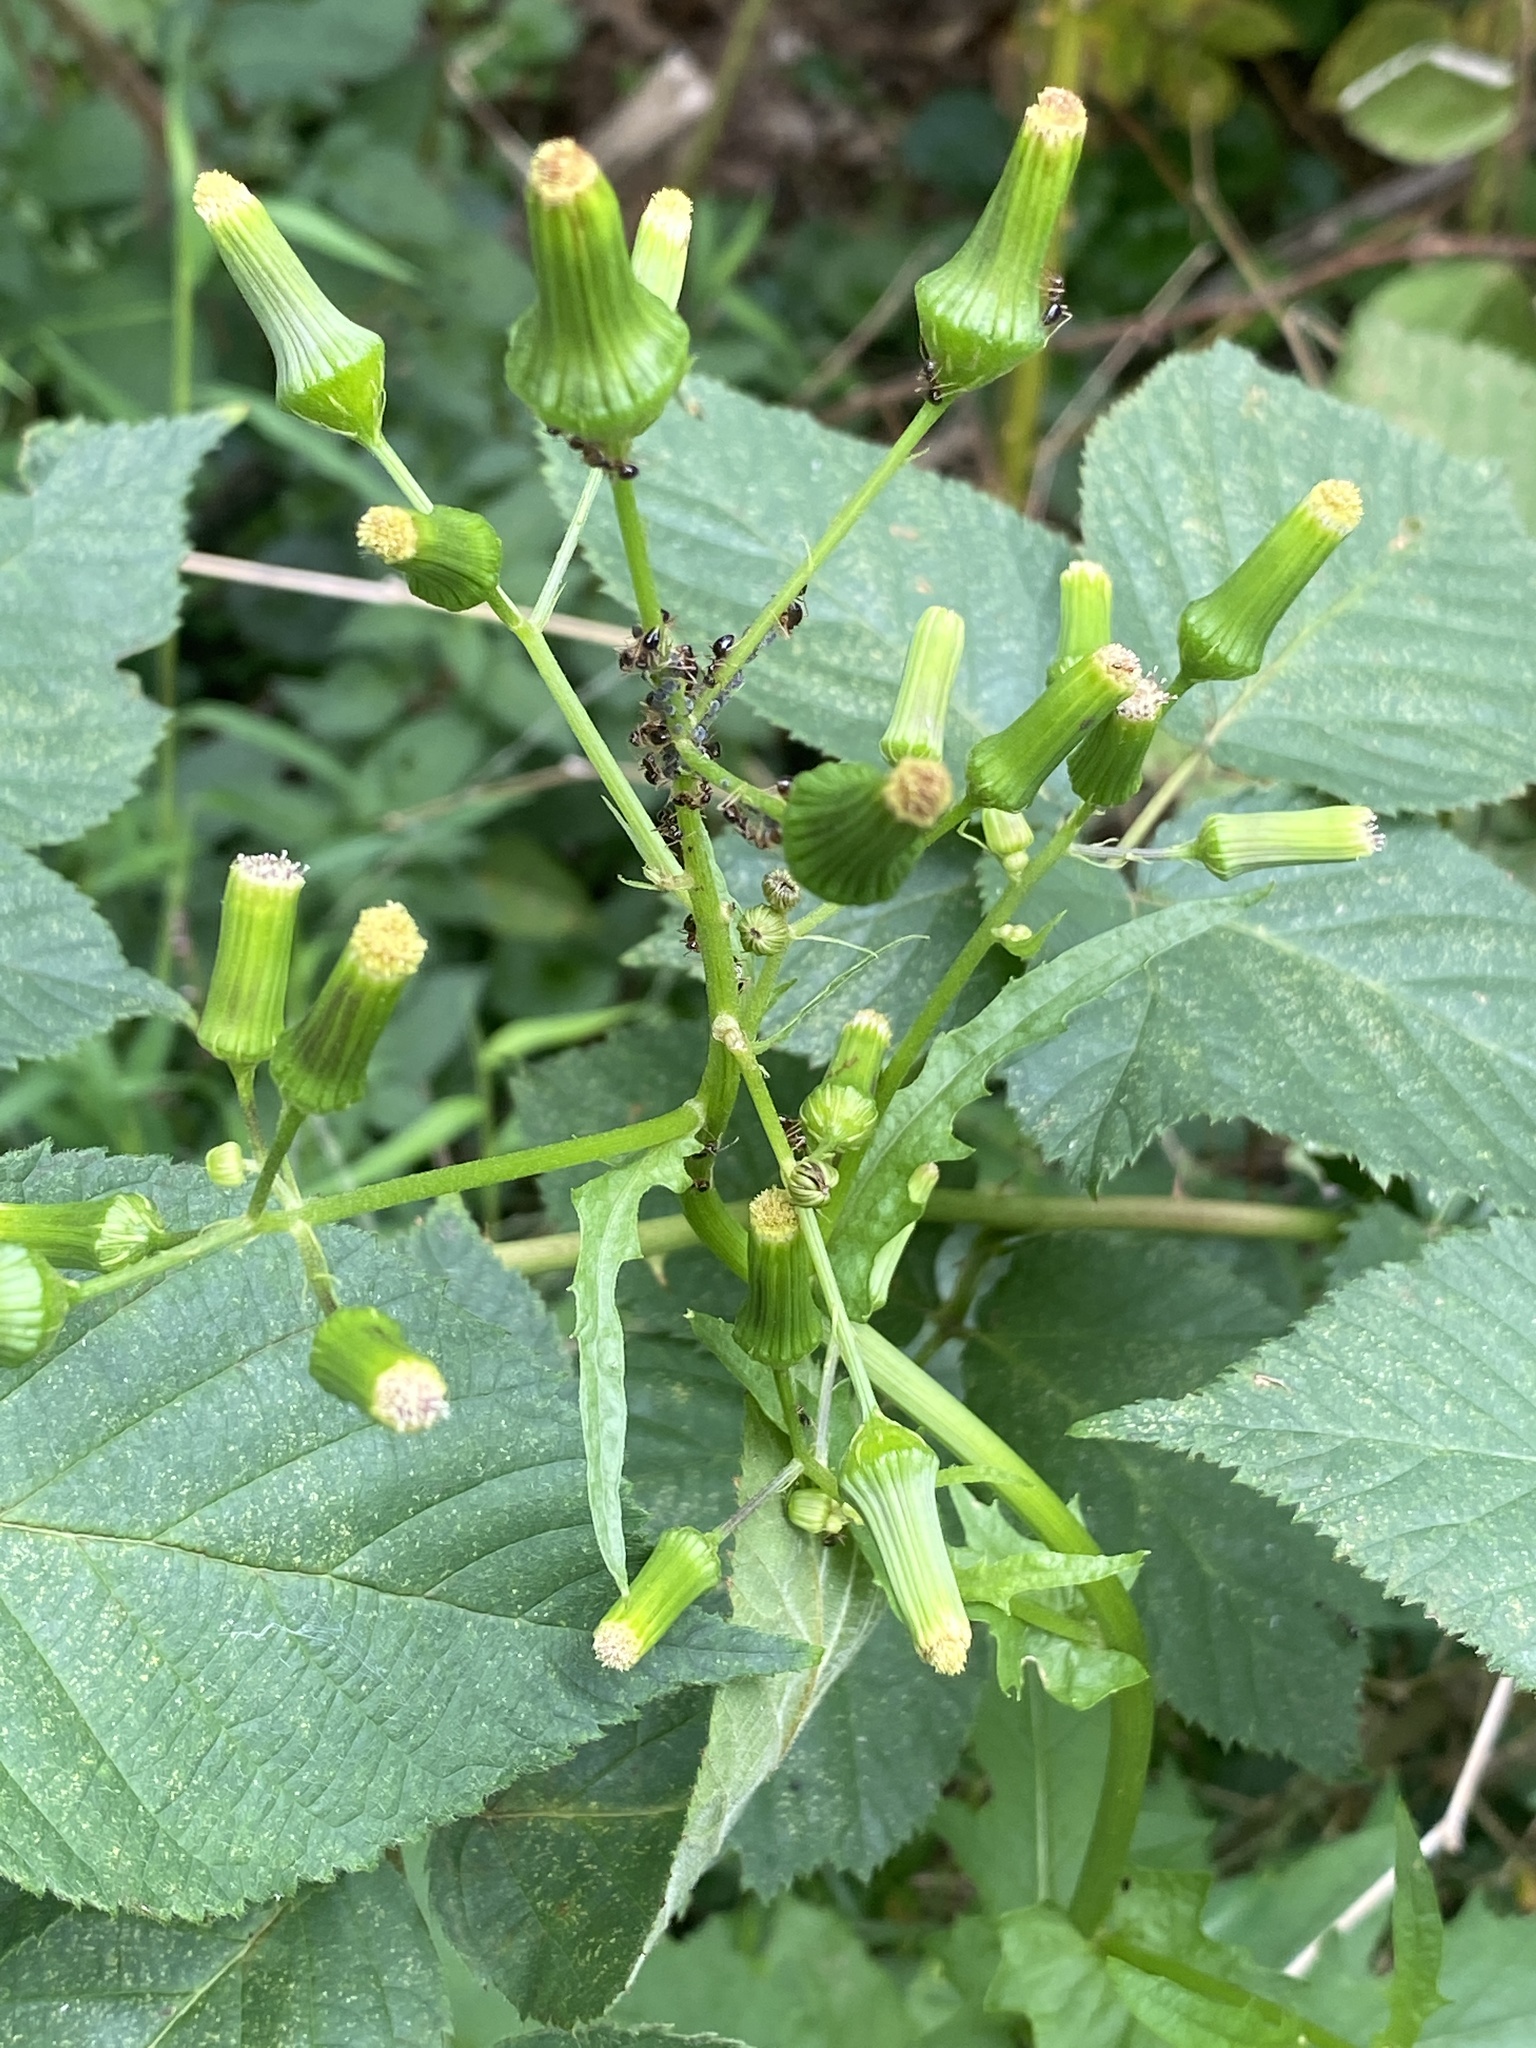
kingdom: Plantae
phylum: Tracheophyta
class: Magnoliopsida
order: Asterales
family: Asteraceae
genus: Erechtites
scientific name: Erechtites hieraciifolius
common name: American burnweed
